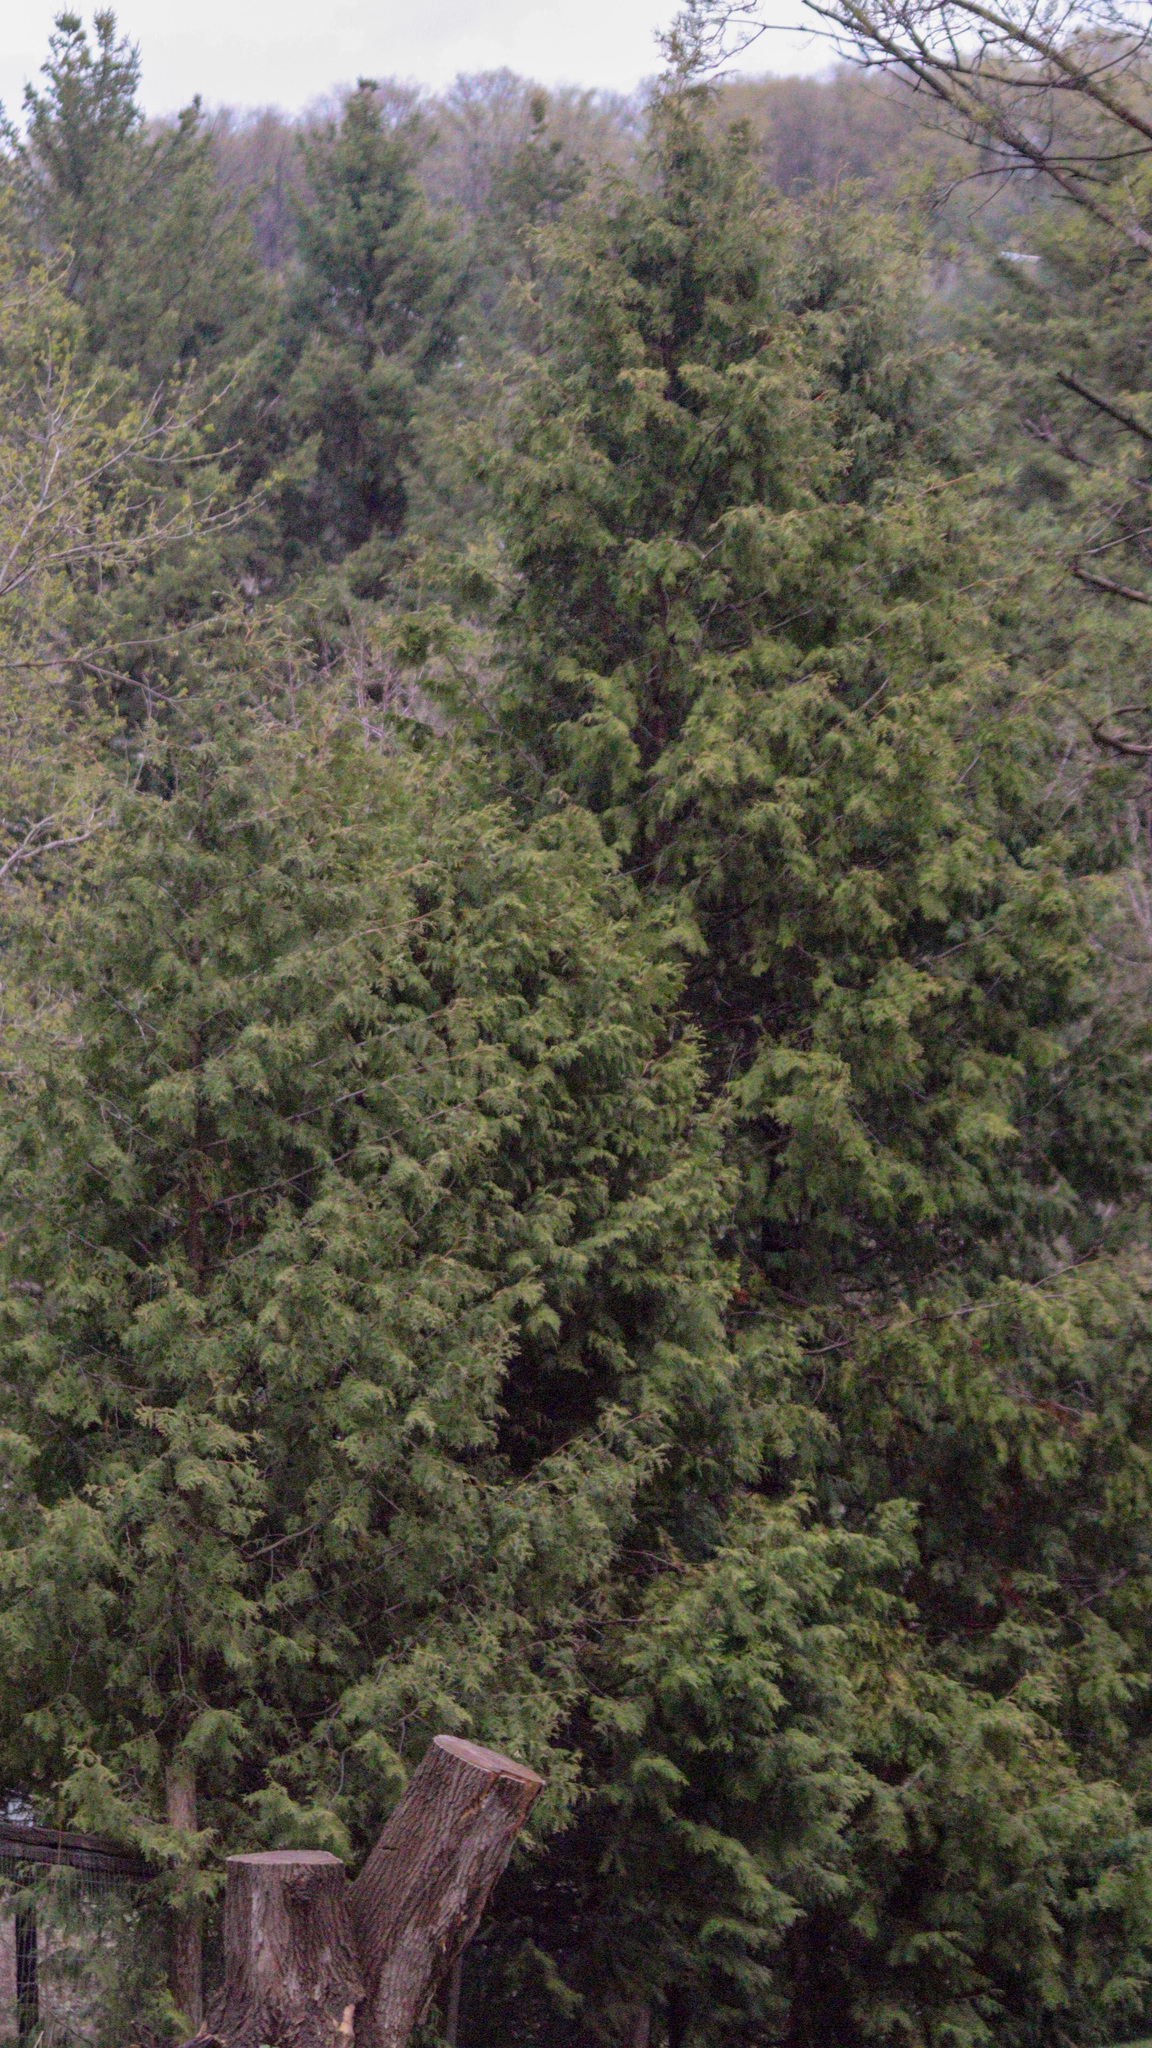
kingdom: Plantae
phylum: Tracheophyta
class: Pinopsida
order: Pinales
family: Cupressaceae
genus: Thuja
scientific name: Thuja occidentalis
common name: Northern white-cedar
